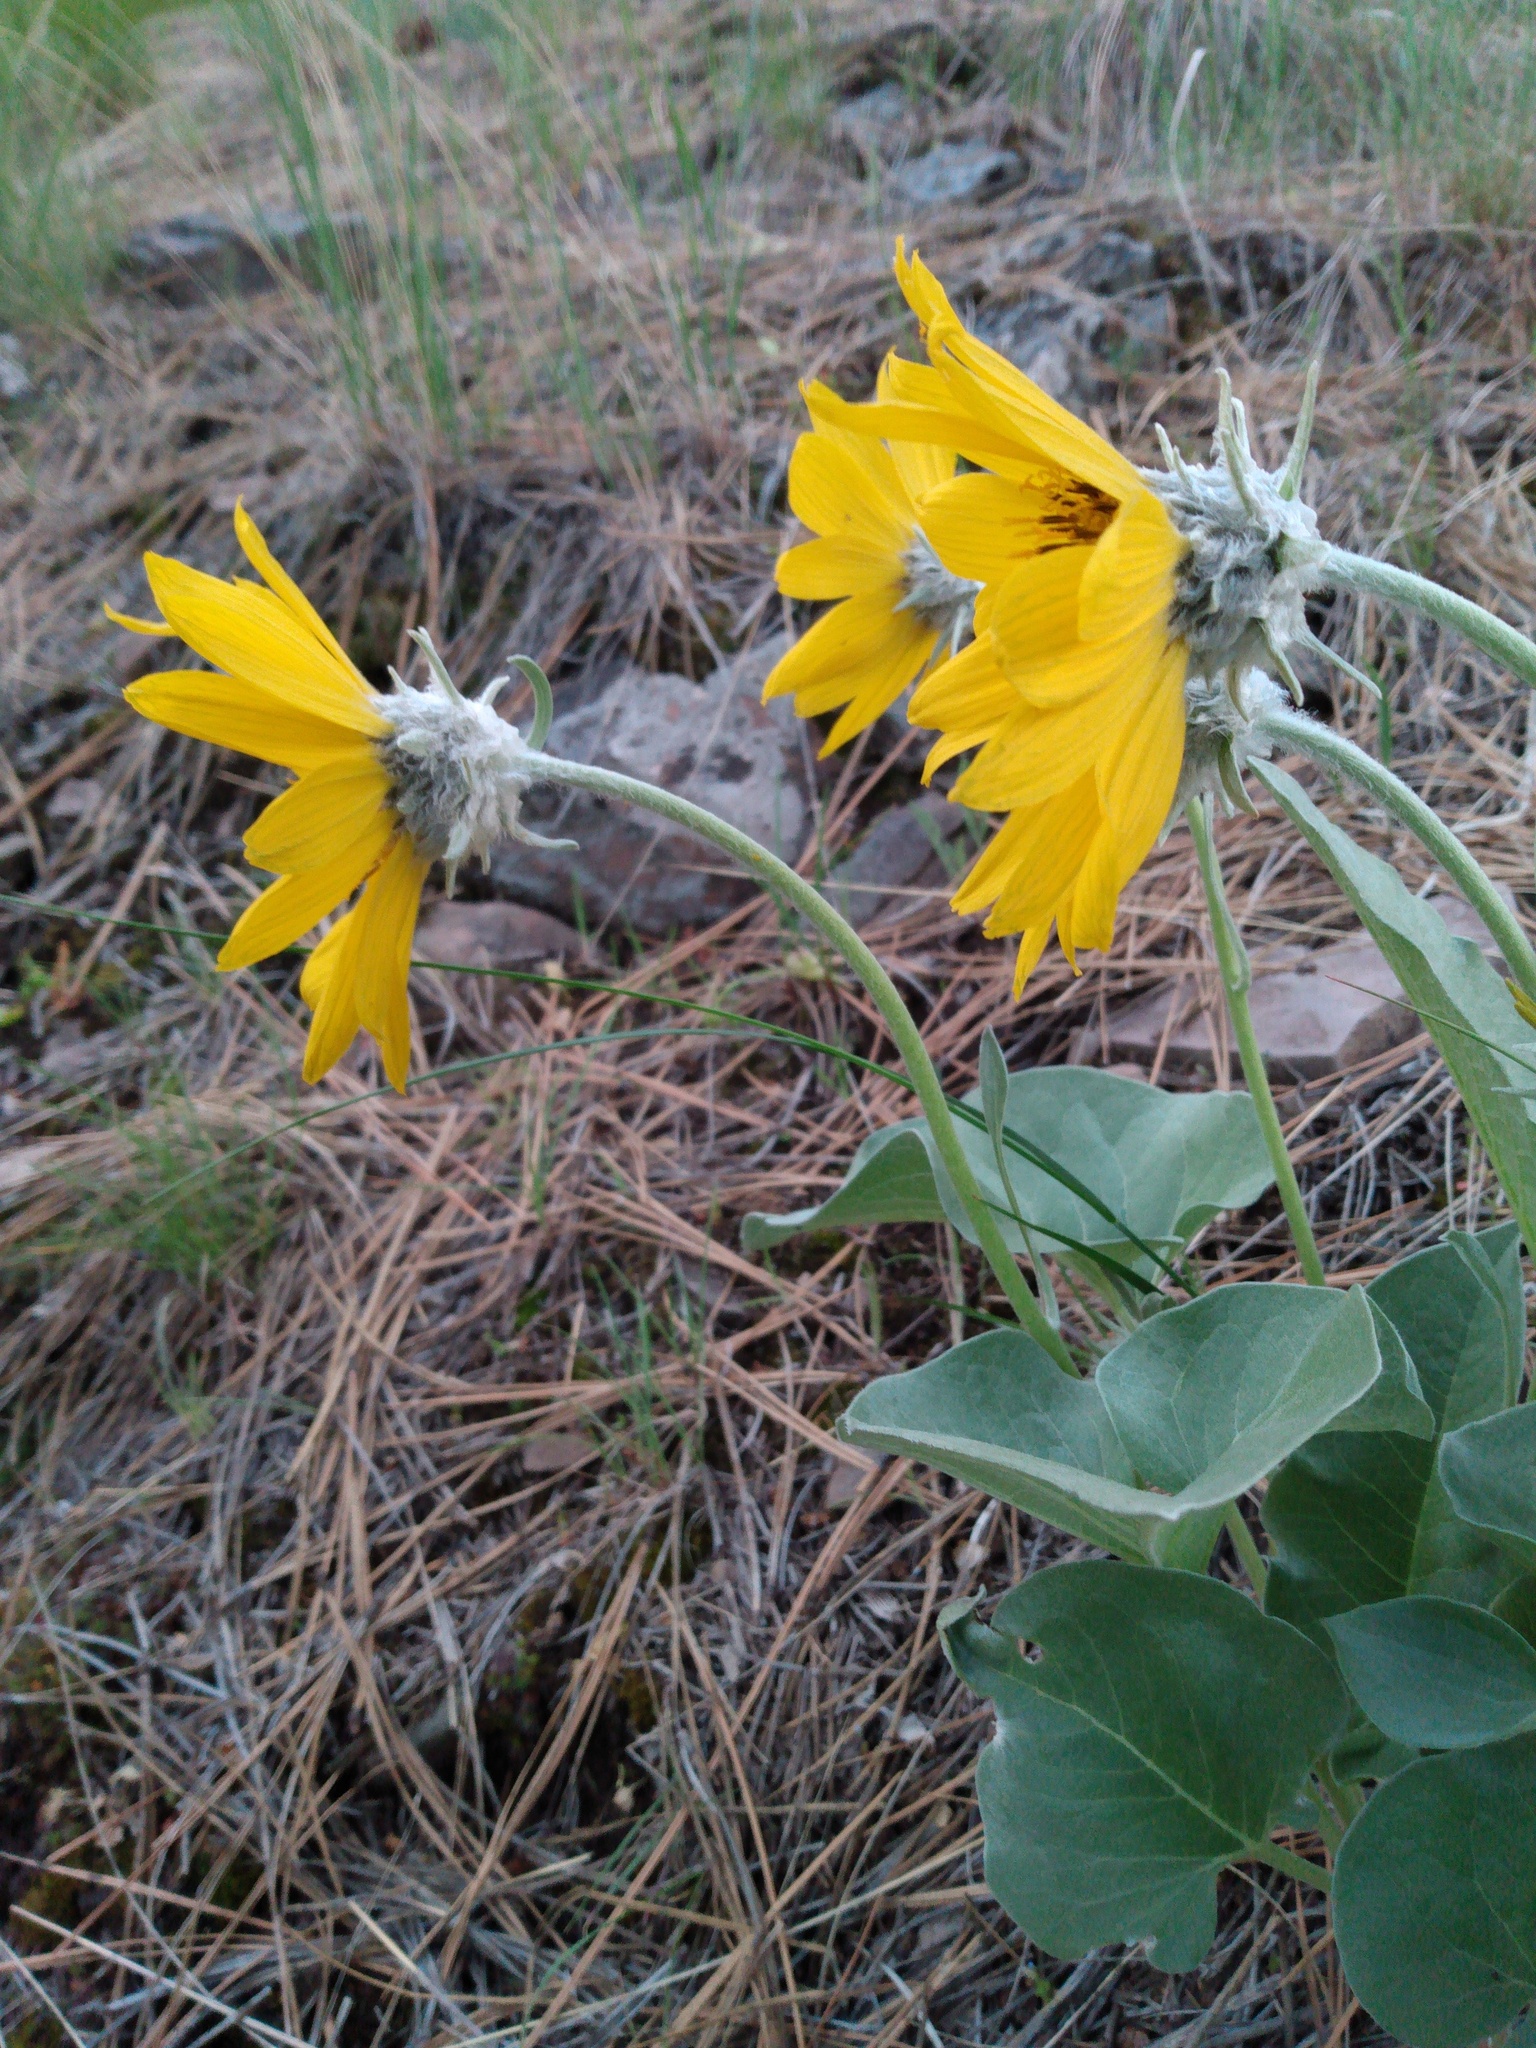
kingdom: Plantae
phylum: Tracheophyta
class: Magnoliopsida
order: Asterales
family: Asteraceae
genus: Wyethia
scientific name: Wyethia sagittata
